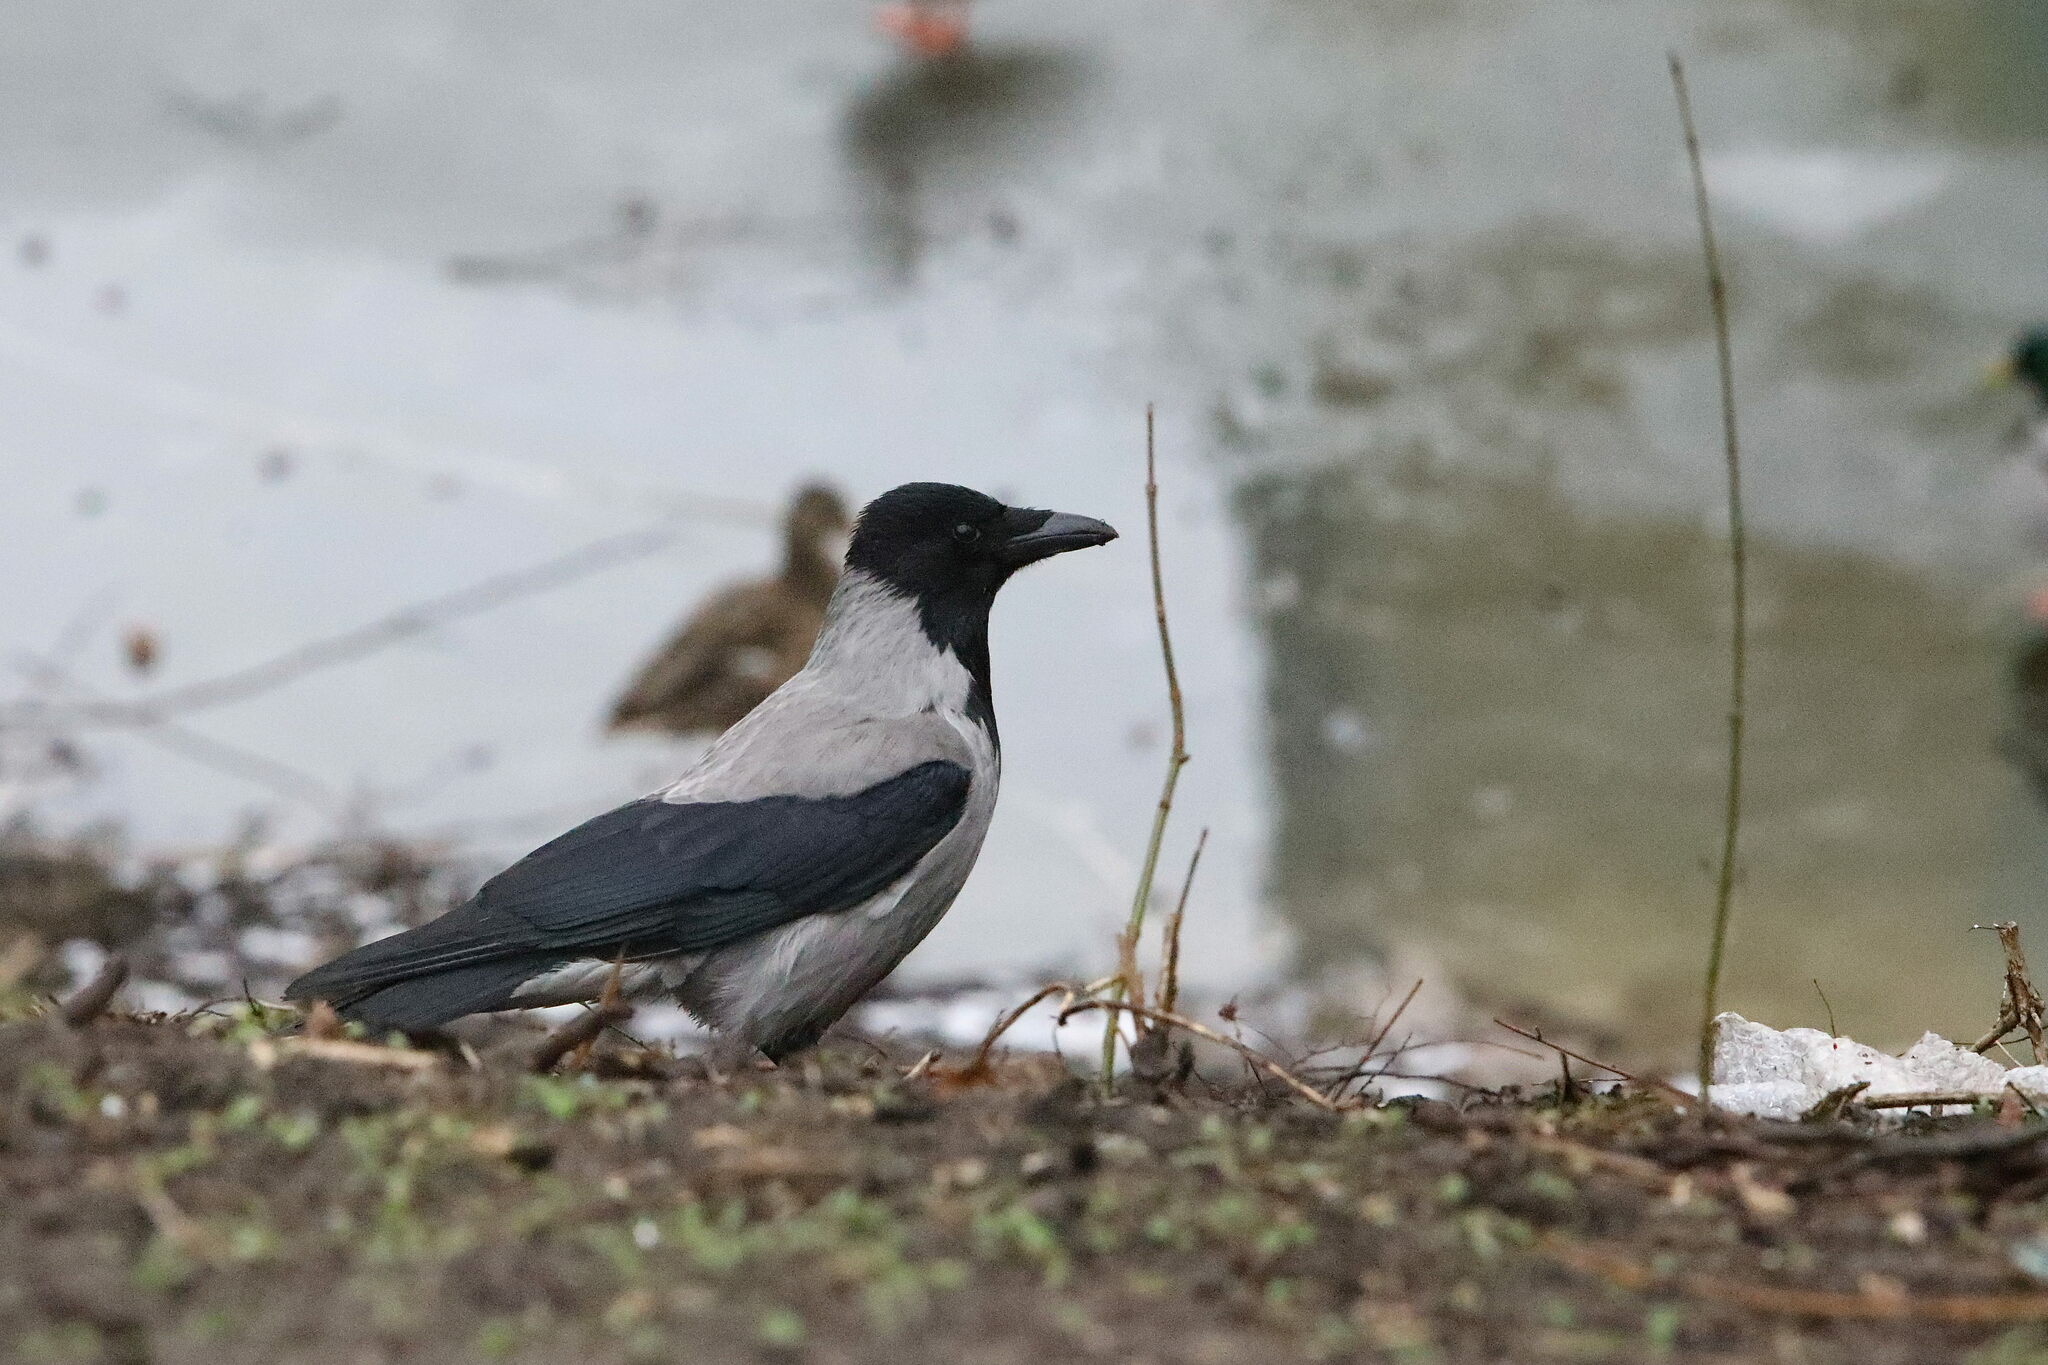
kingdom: Animalia
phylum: Chordata
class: Aves
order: Passeriformes
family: Corvidae
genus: Corvus
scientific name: Corvus cornix
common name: Hooded crow
